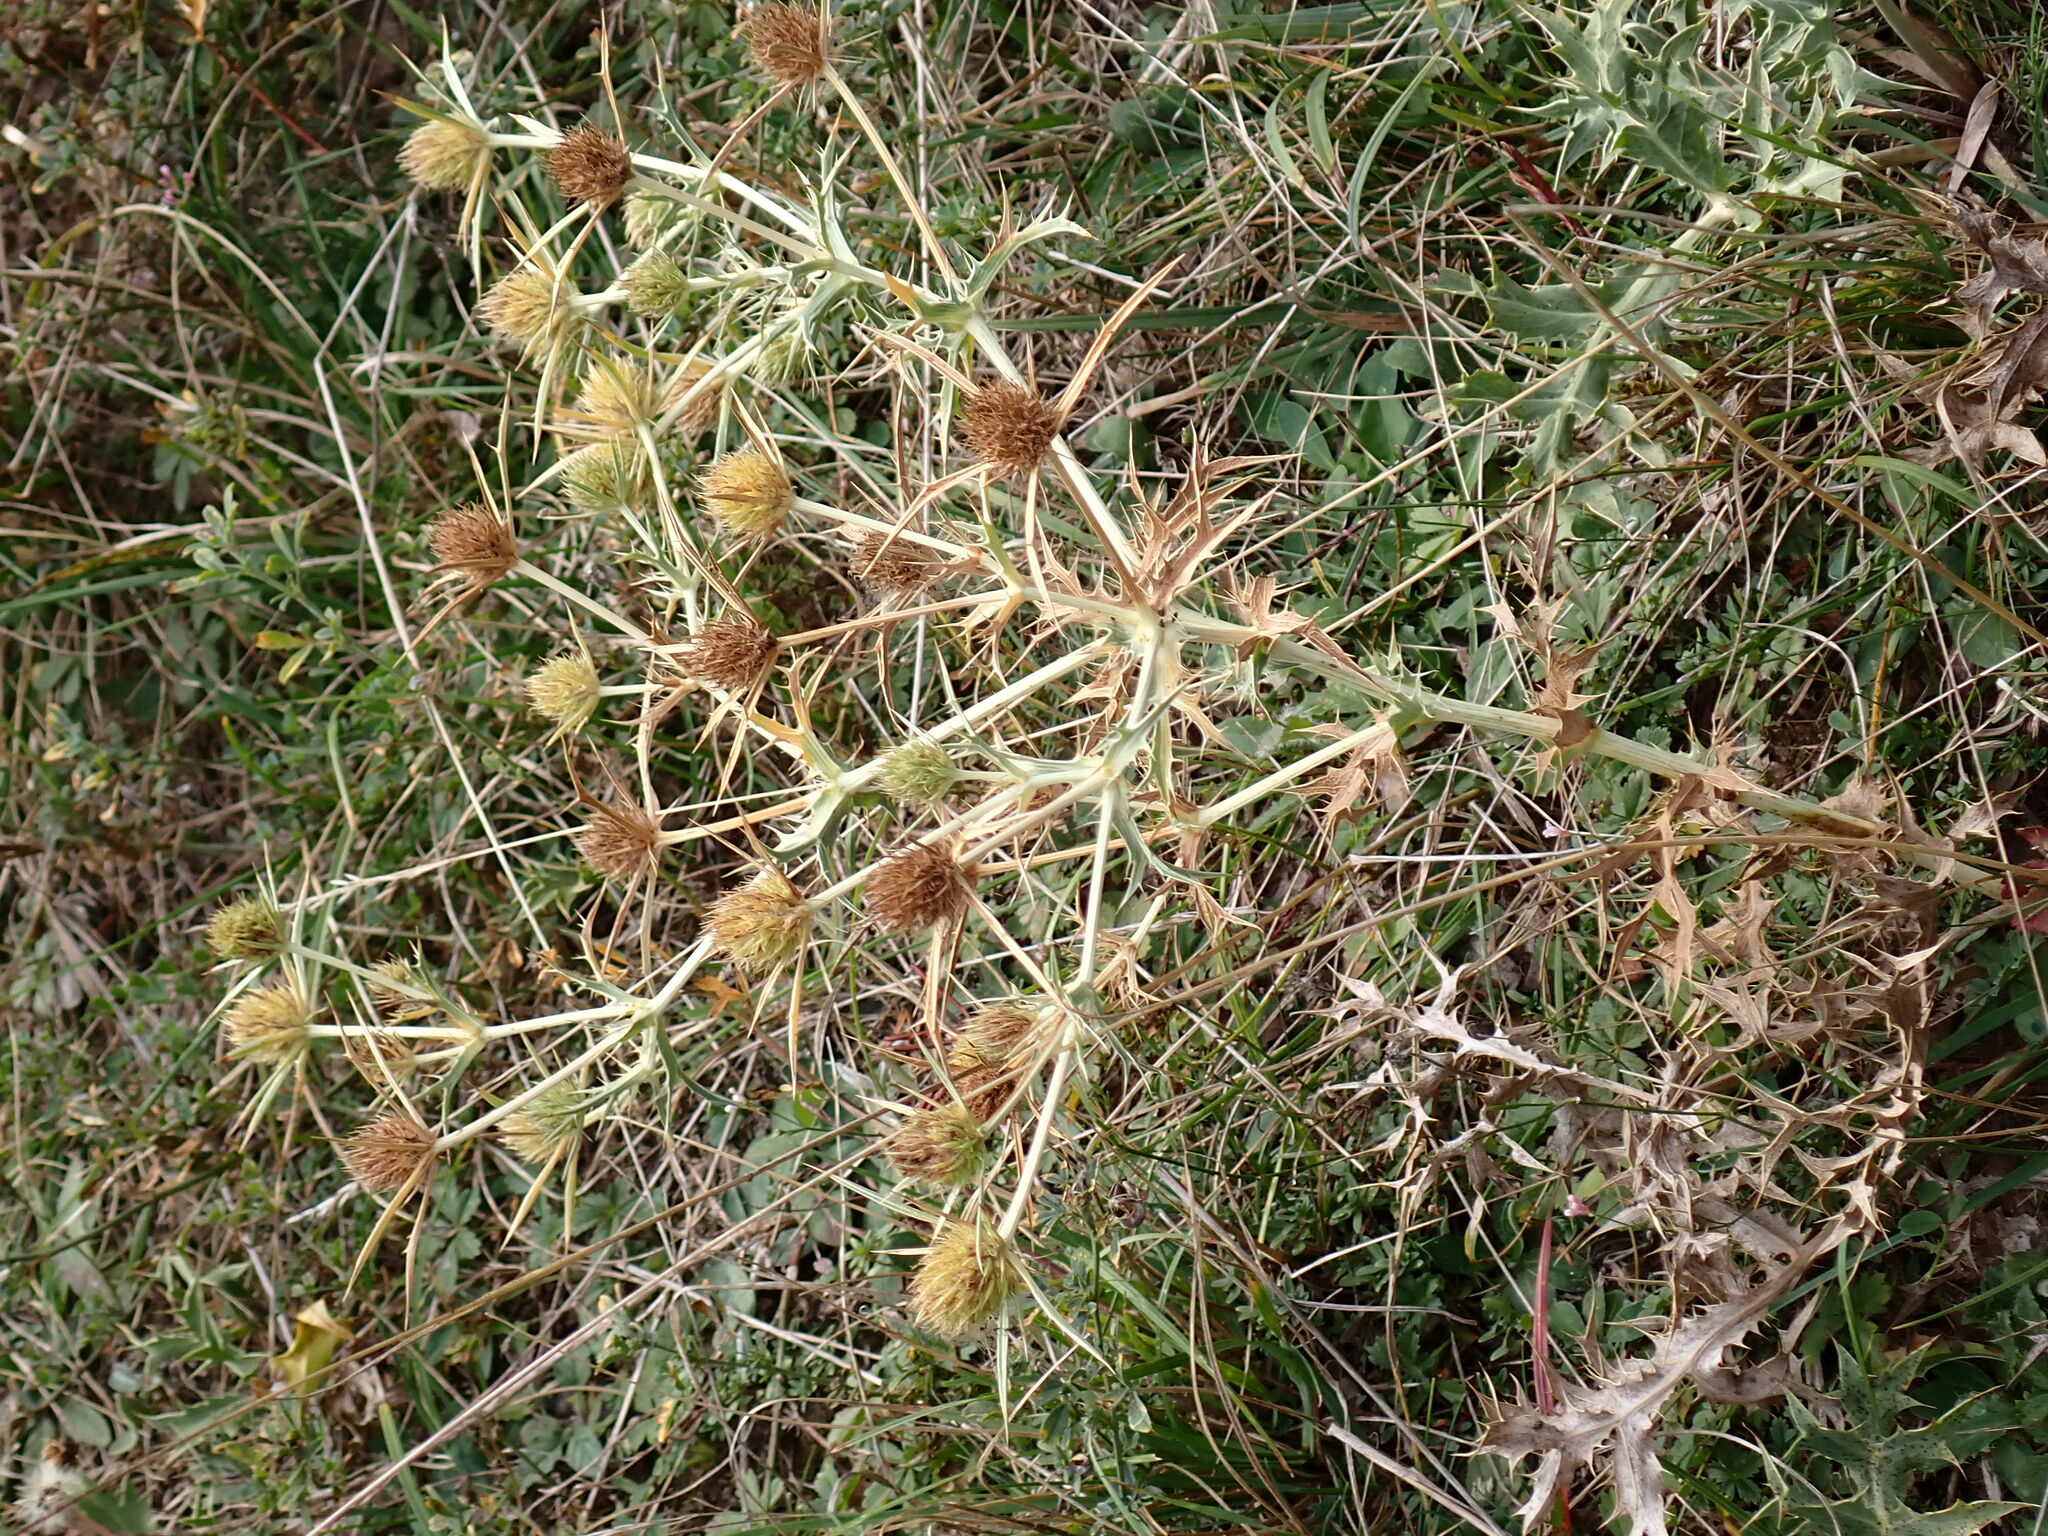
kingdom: Plantae
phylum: Tracheophyta
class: Magnoliopsida
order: Apiales
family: Apiaceae
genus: Eryngium
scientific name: Eryngium campestre
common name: Field eryngo
